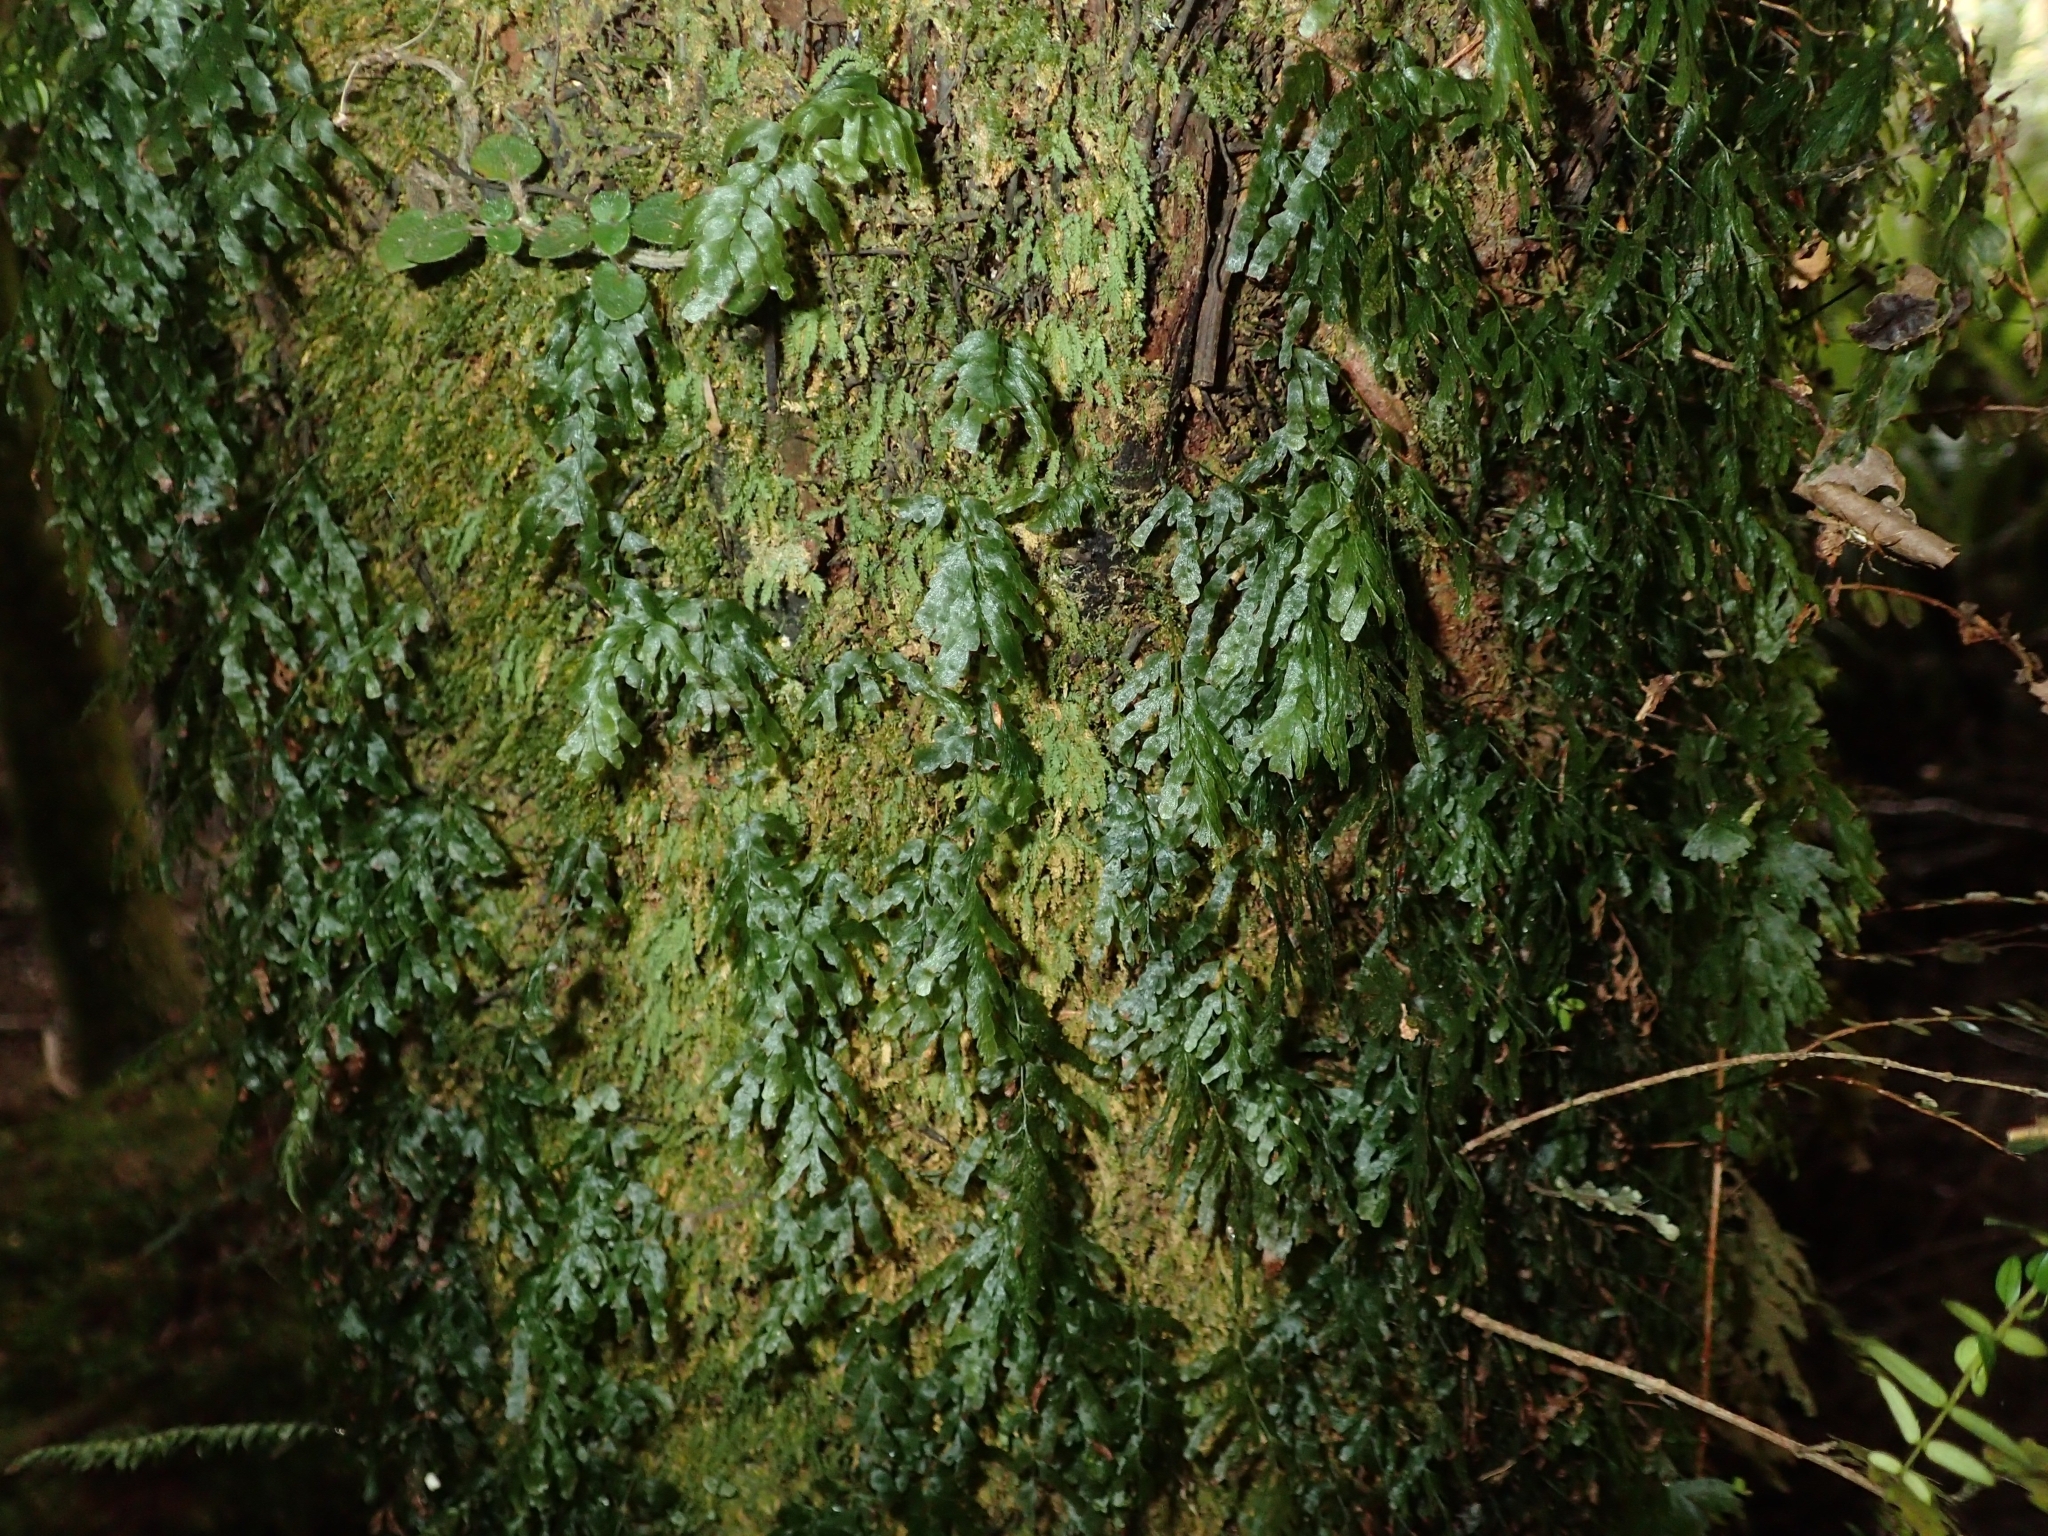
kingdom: Plantae
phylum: Tracheophyta
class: Polypodiopsida
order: Hymenophyllales
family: Hymenophyllaceae
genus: Polyphlebium
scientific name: Polyphlebium venosum
